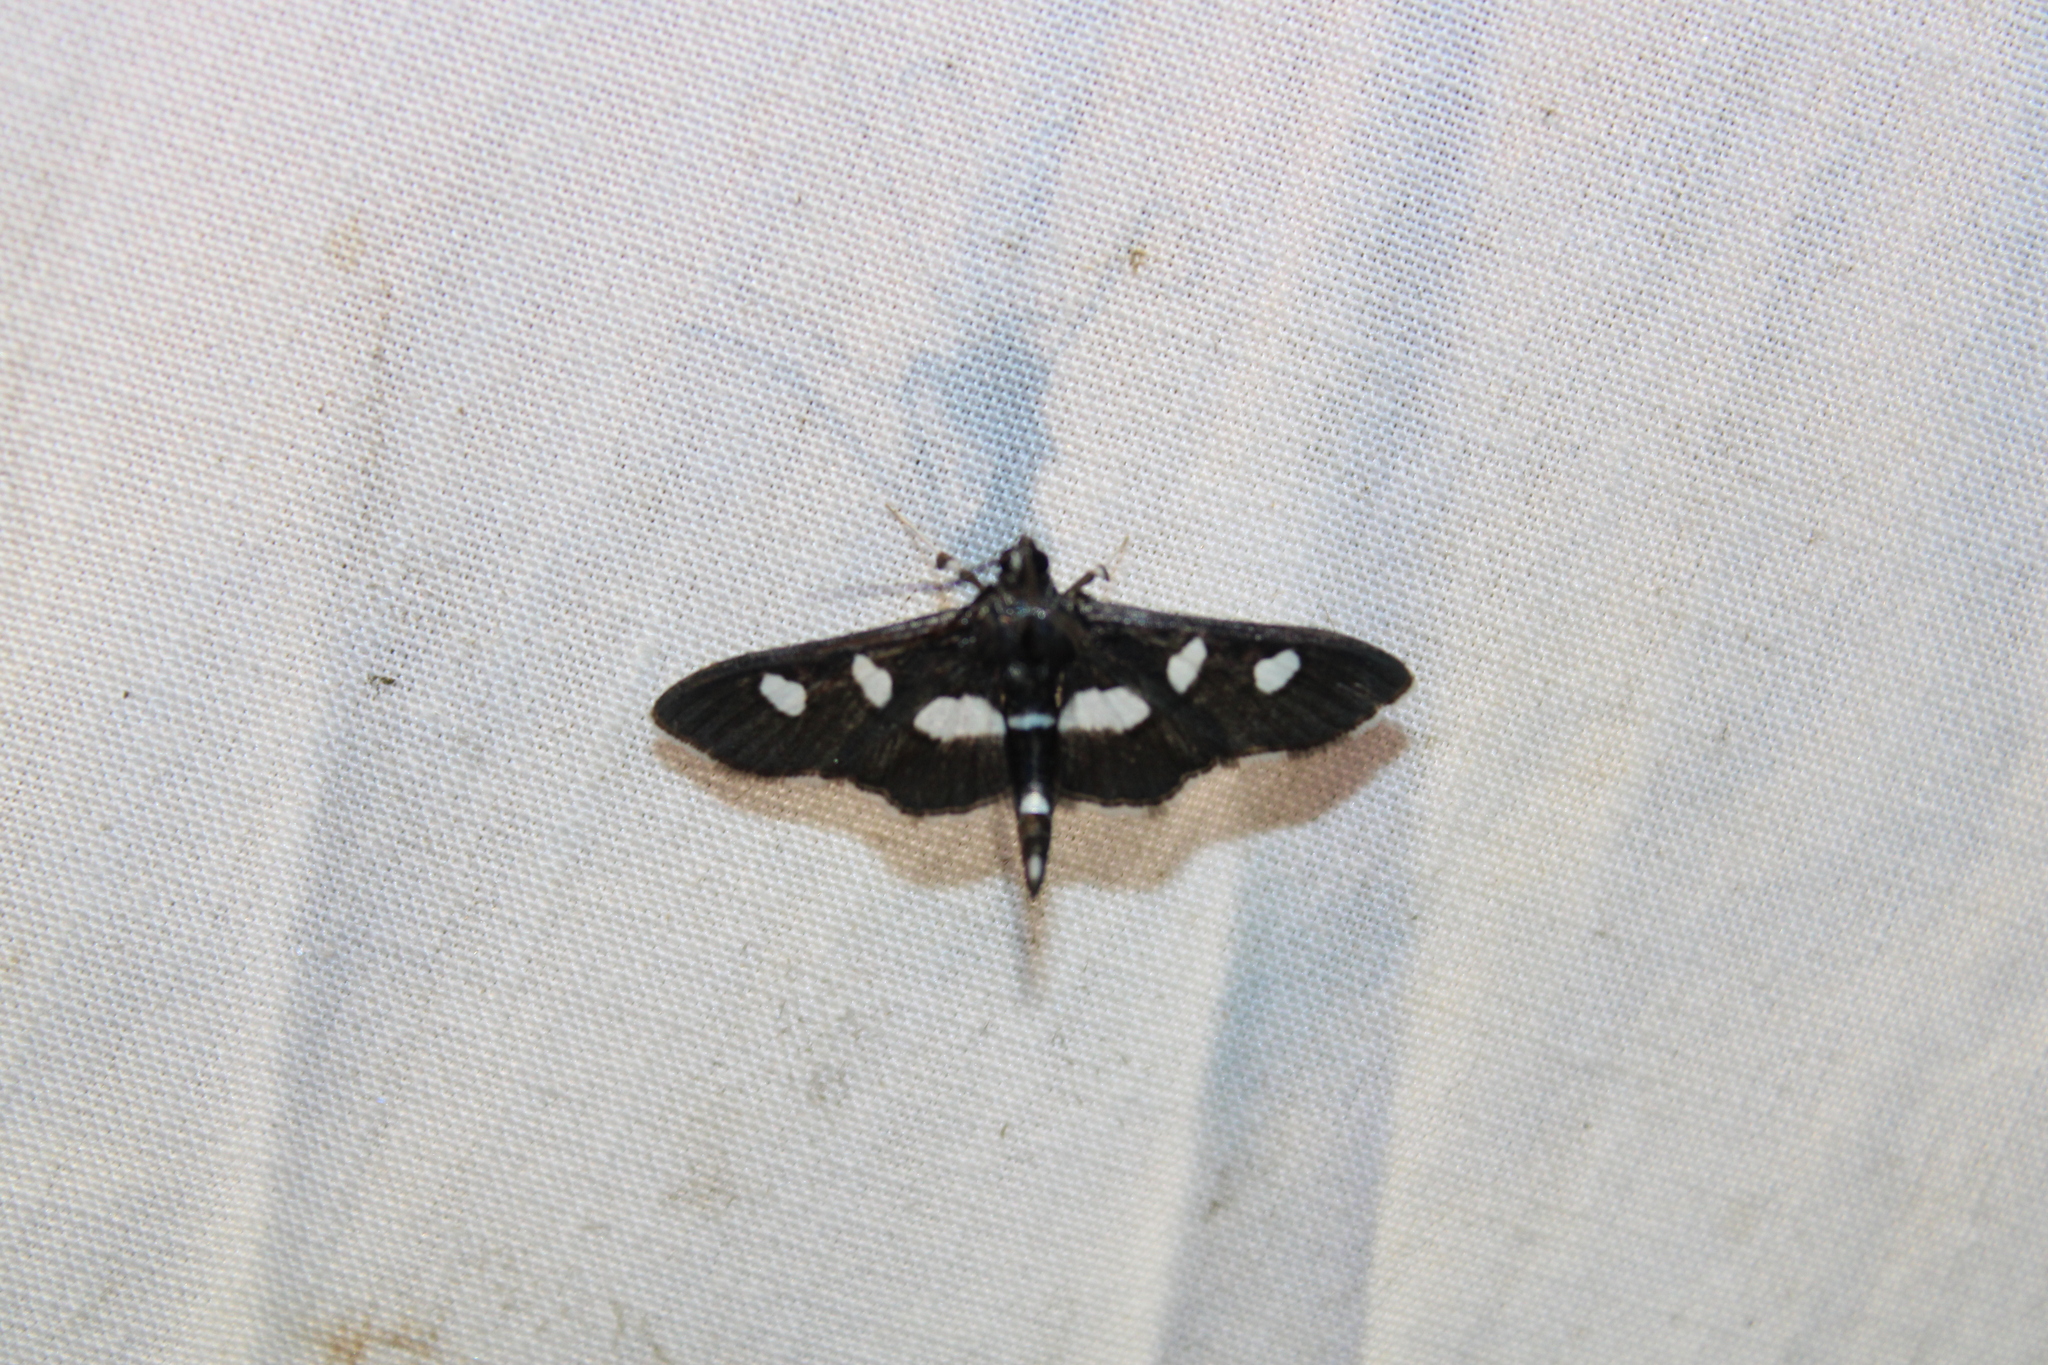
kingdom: Animalia
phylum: Arthropoda
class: Insecta
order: Lepidoptera
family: Crambidae
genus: Desmia
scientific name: Desmia
